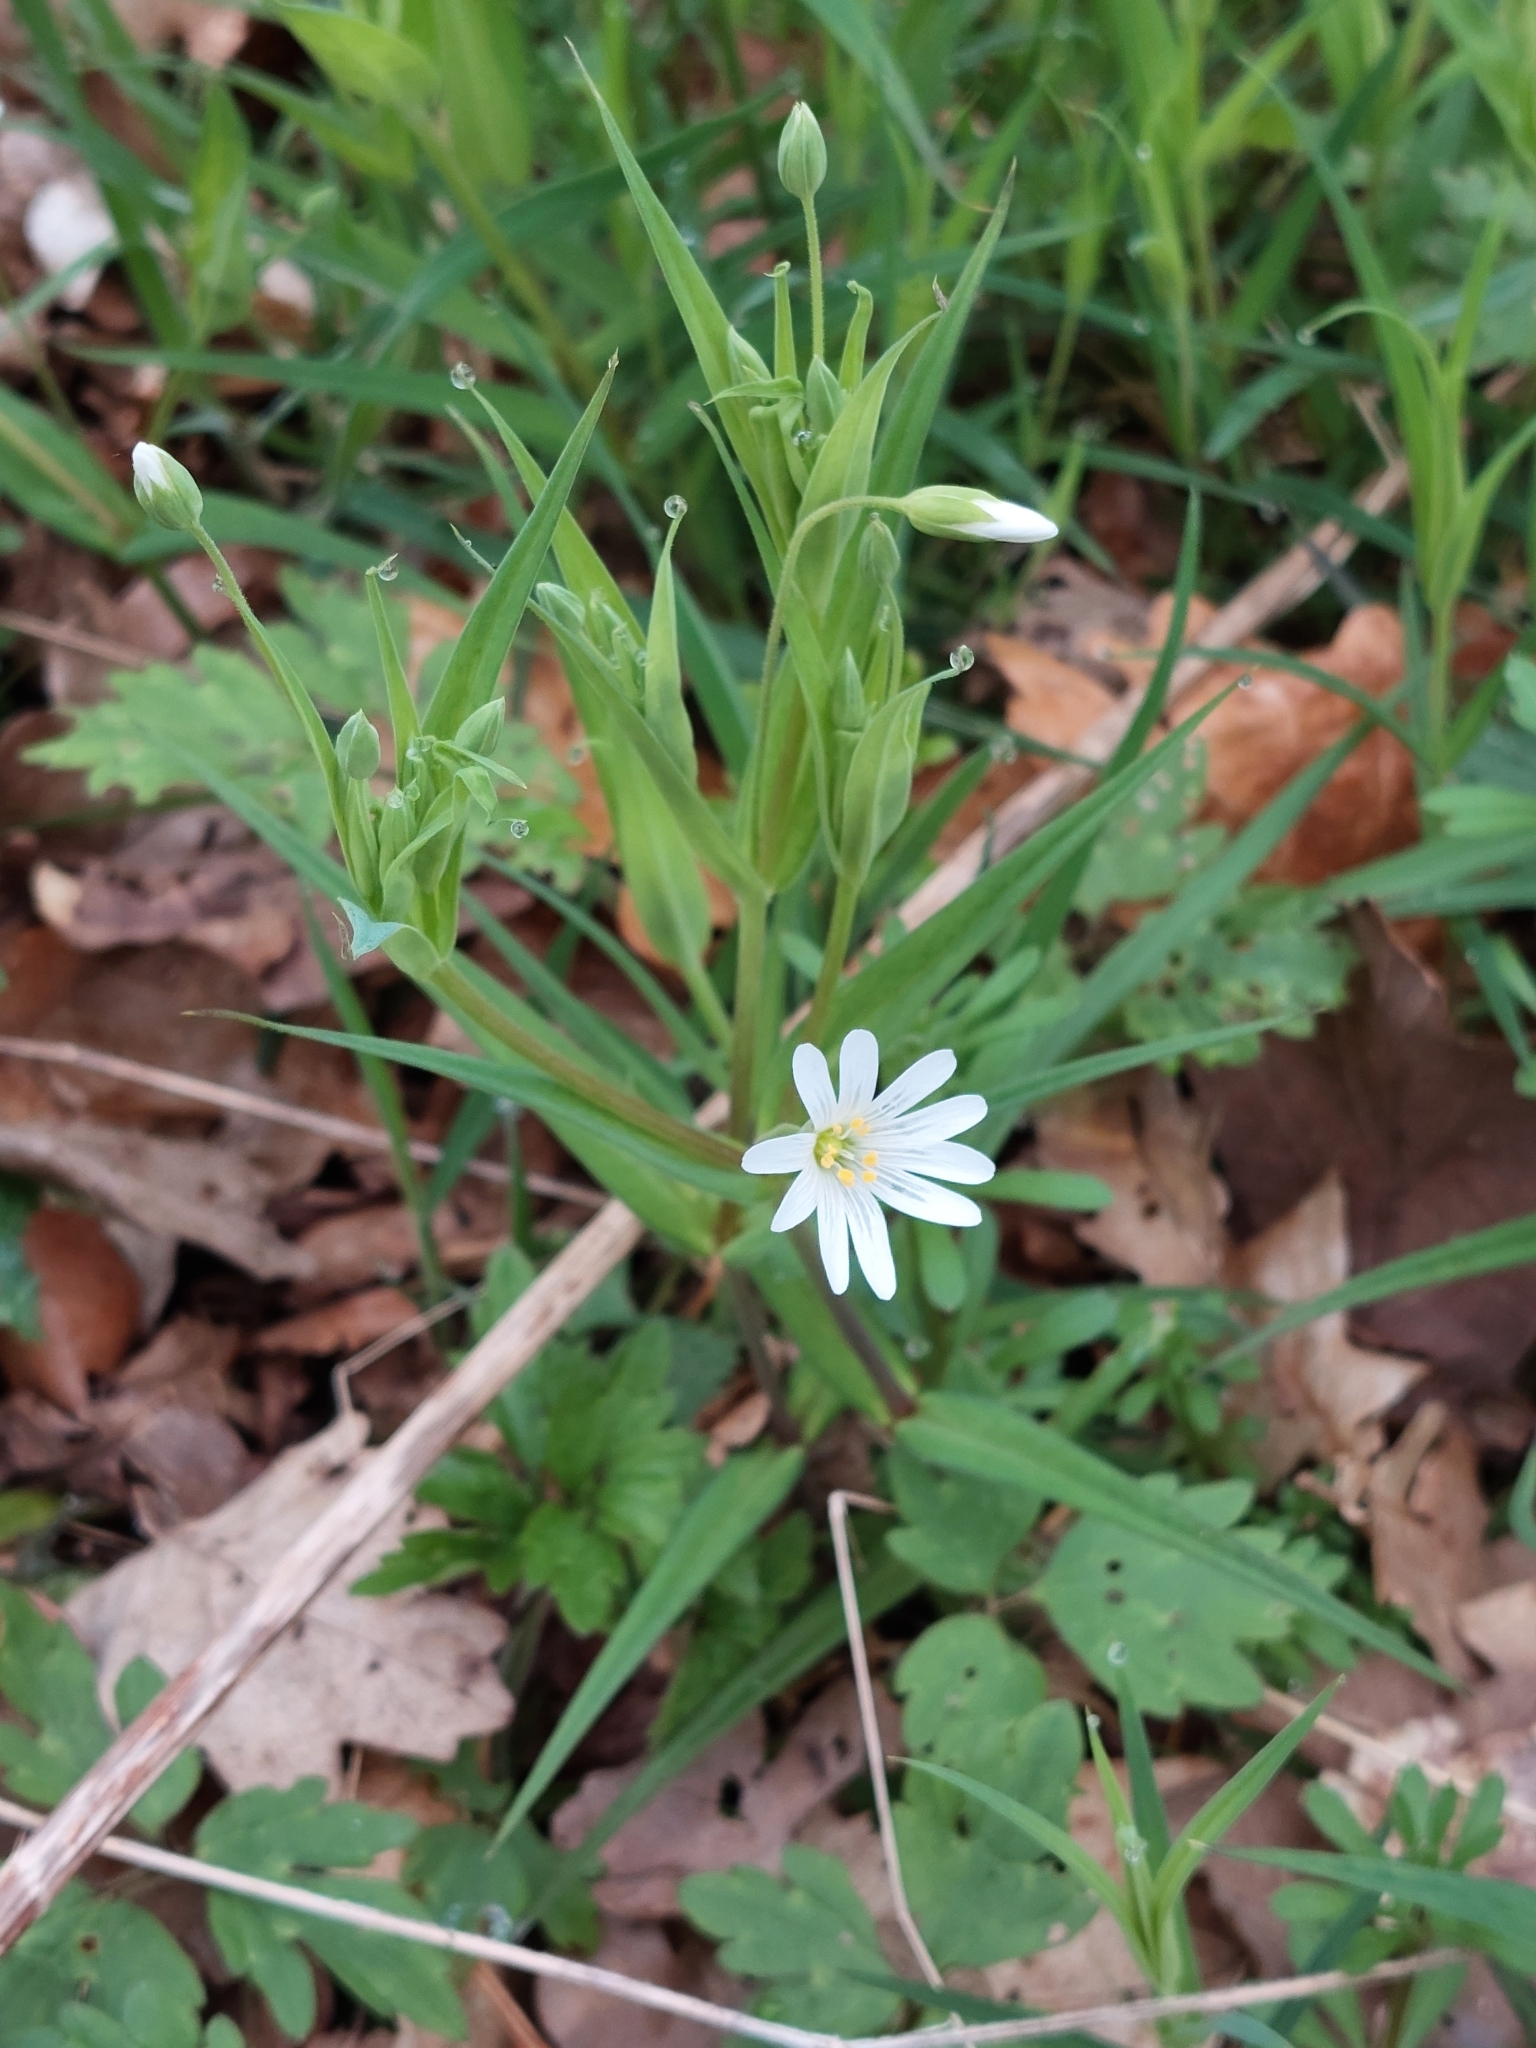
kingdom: Plantae
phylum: Tracheophyta
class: Magnoliopsida
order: Caryophyllales
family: Caryophyllaceae
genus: Rabelera
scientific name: Rabelera holostea
